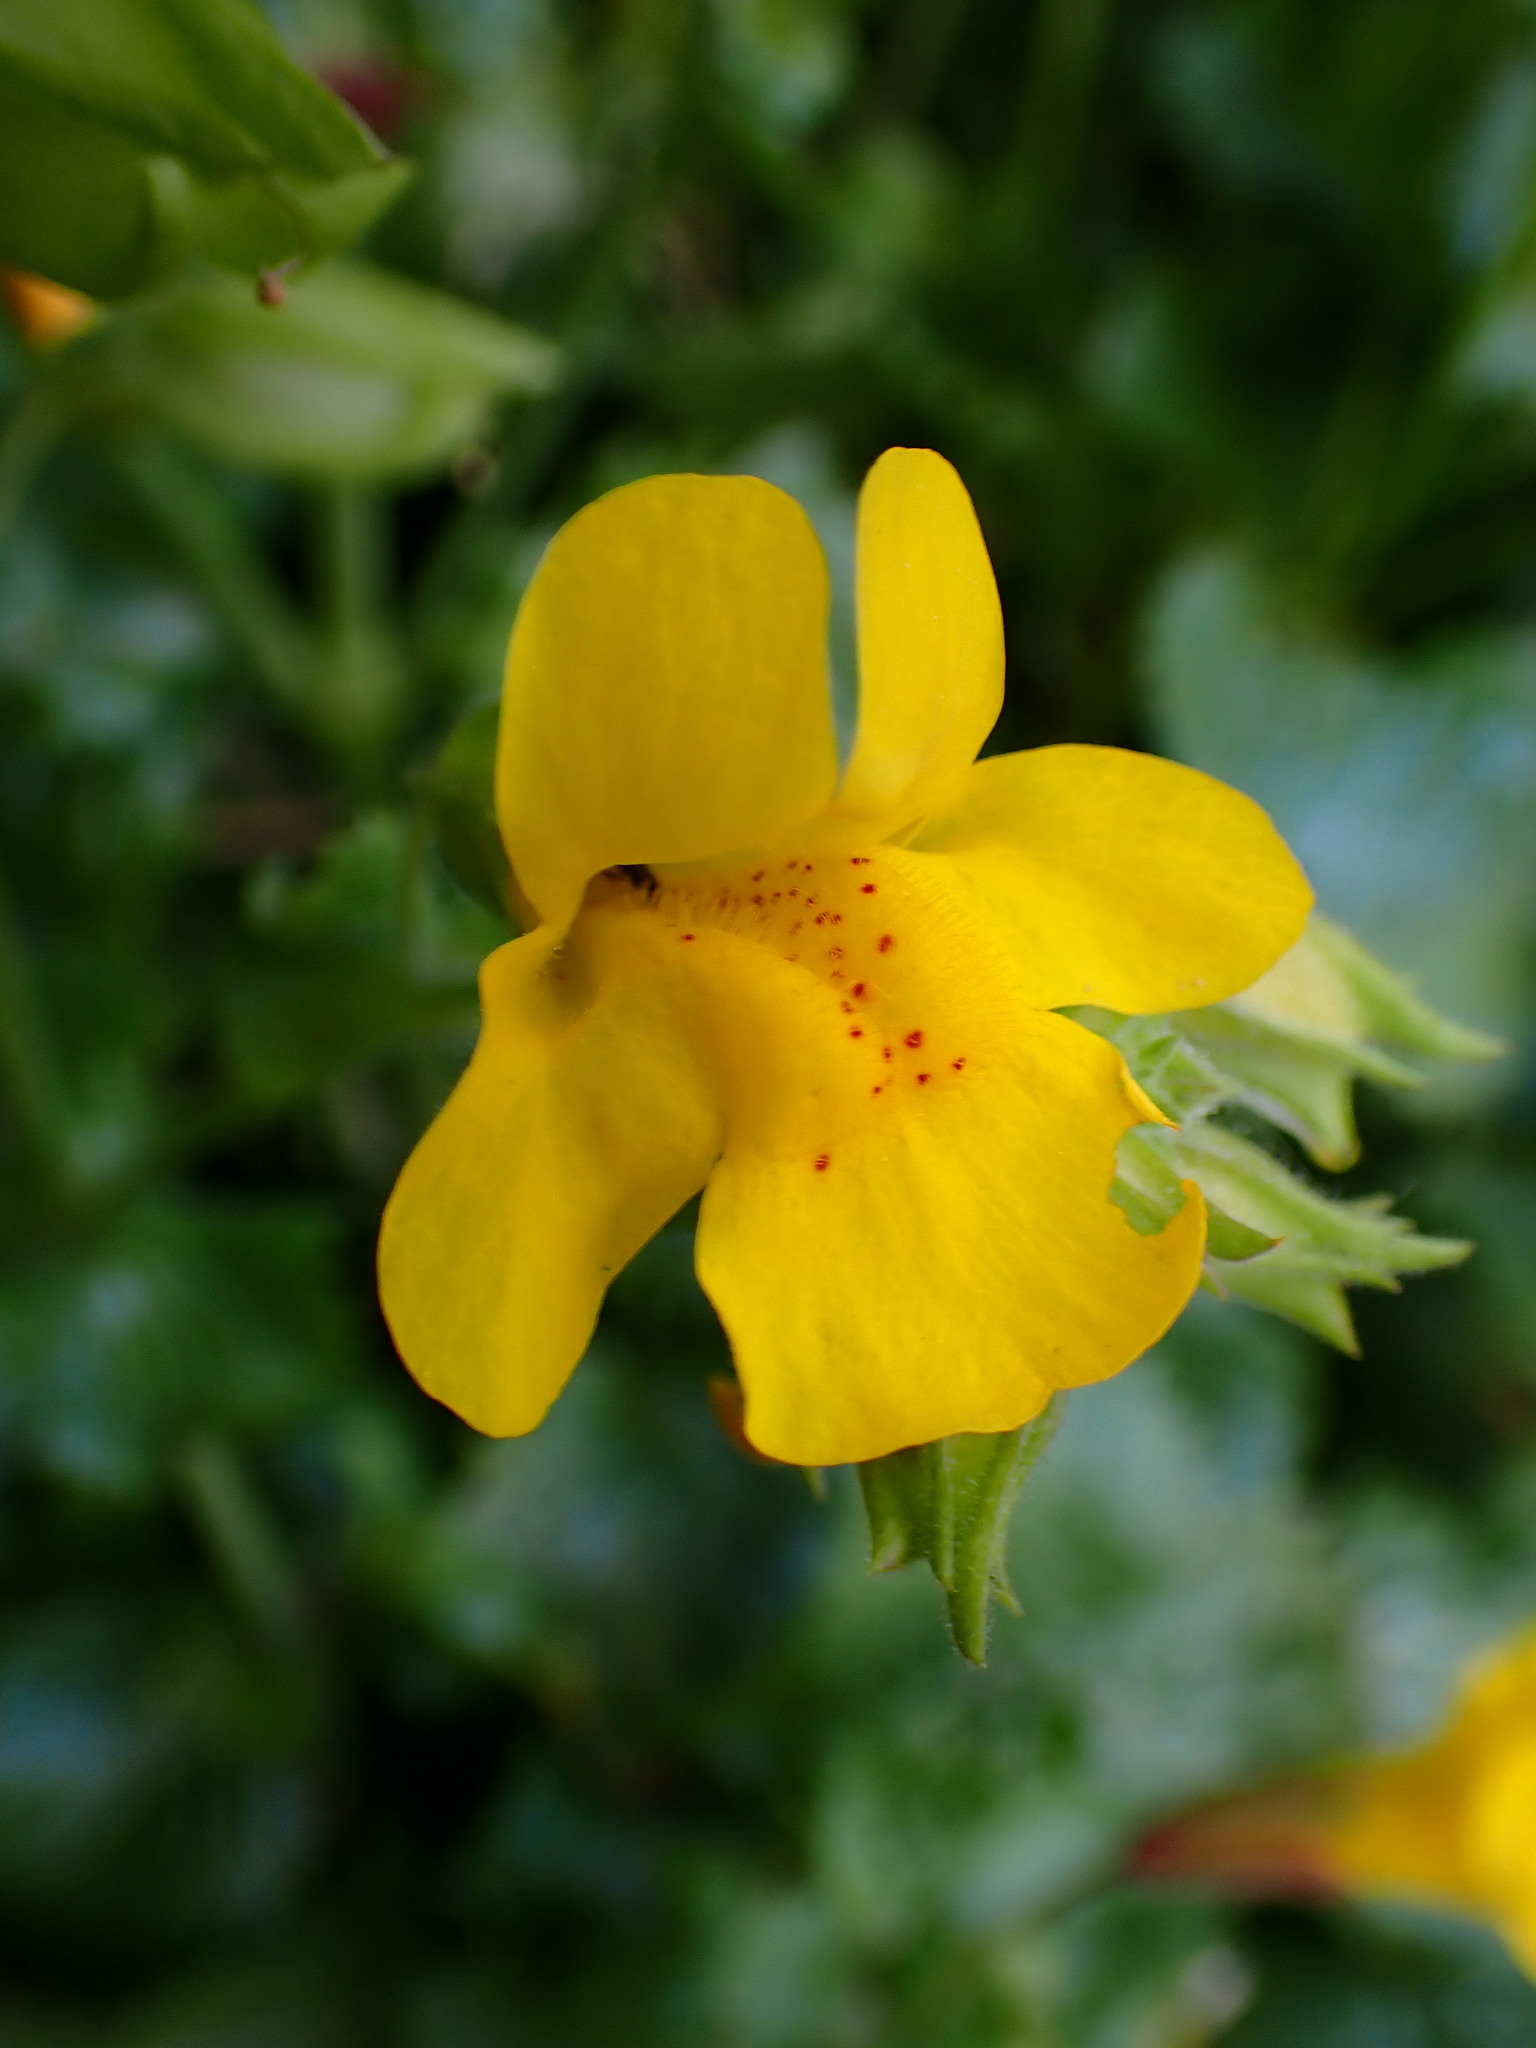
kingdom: Plantae
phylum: Tracheophyta
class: Magnoliopsida
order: Lamiales
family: Phrymaceae
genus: Erythranthe
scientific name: Erythranthe guttata
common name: Monkeyflower
